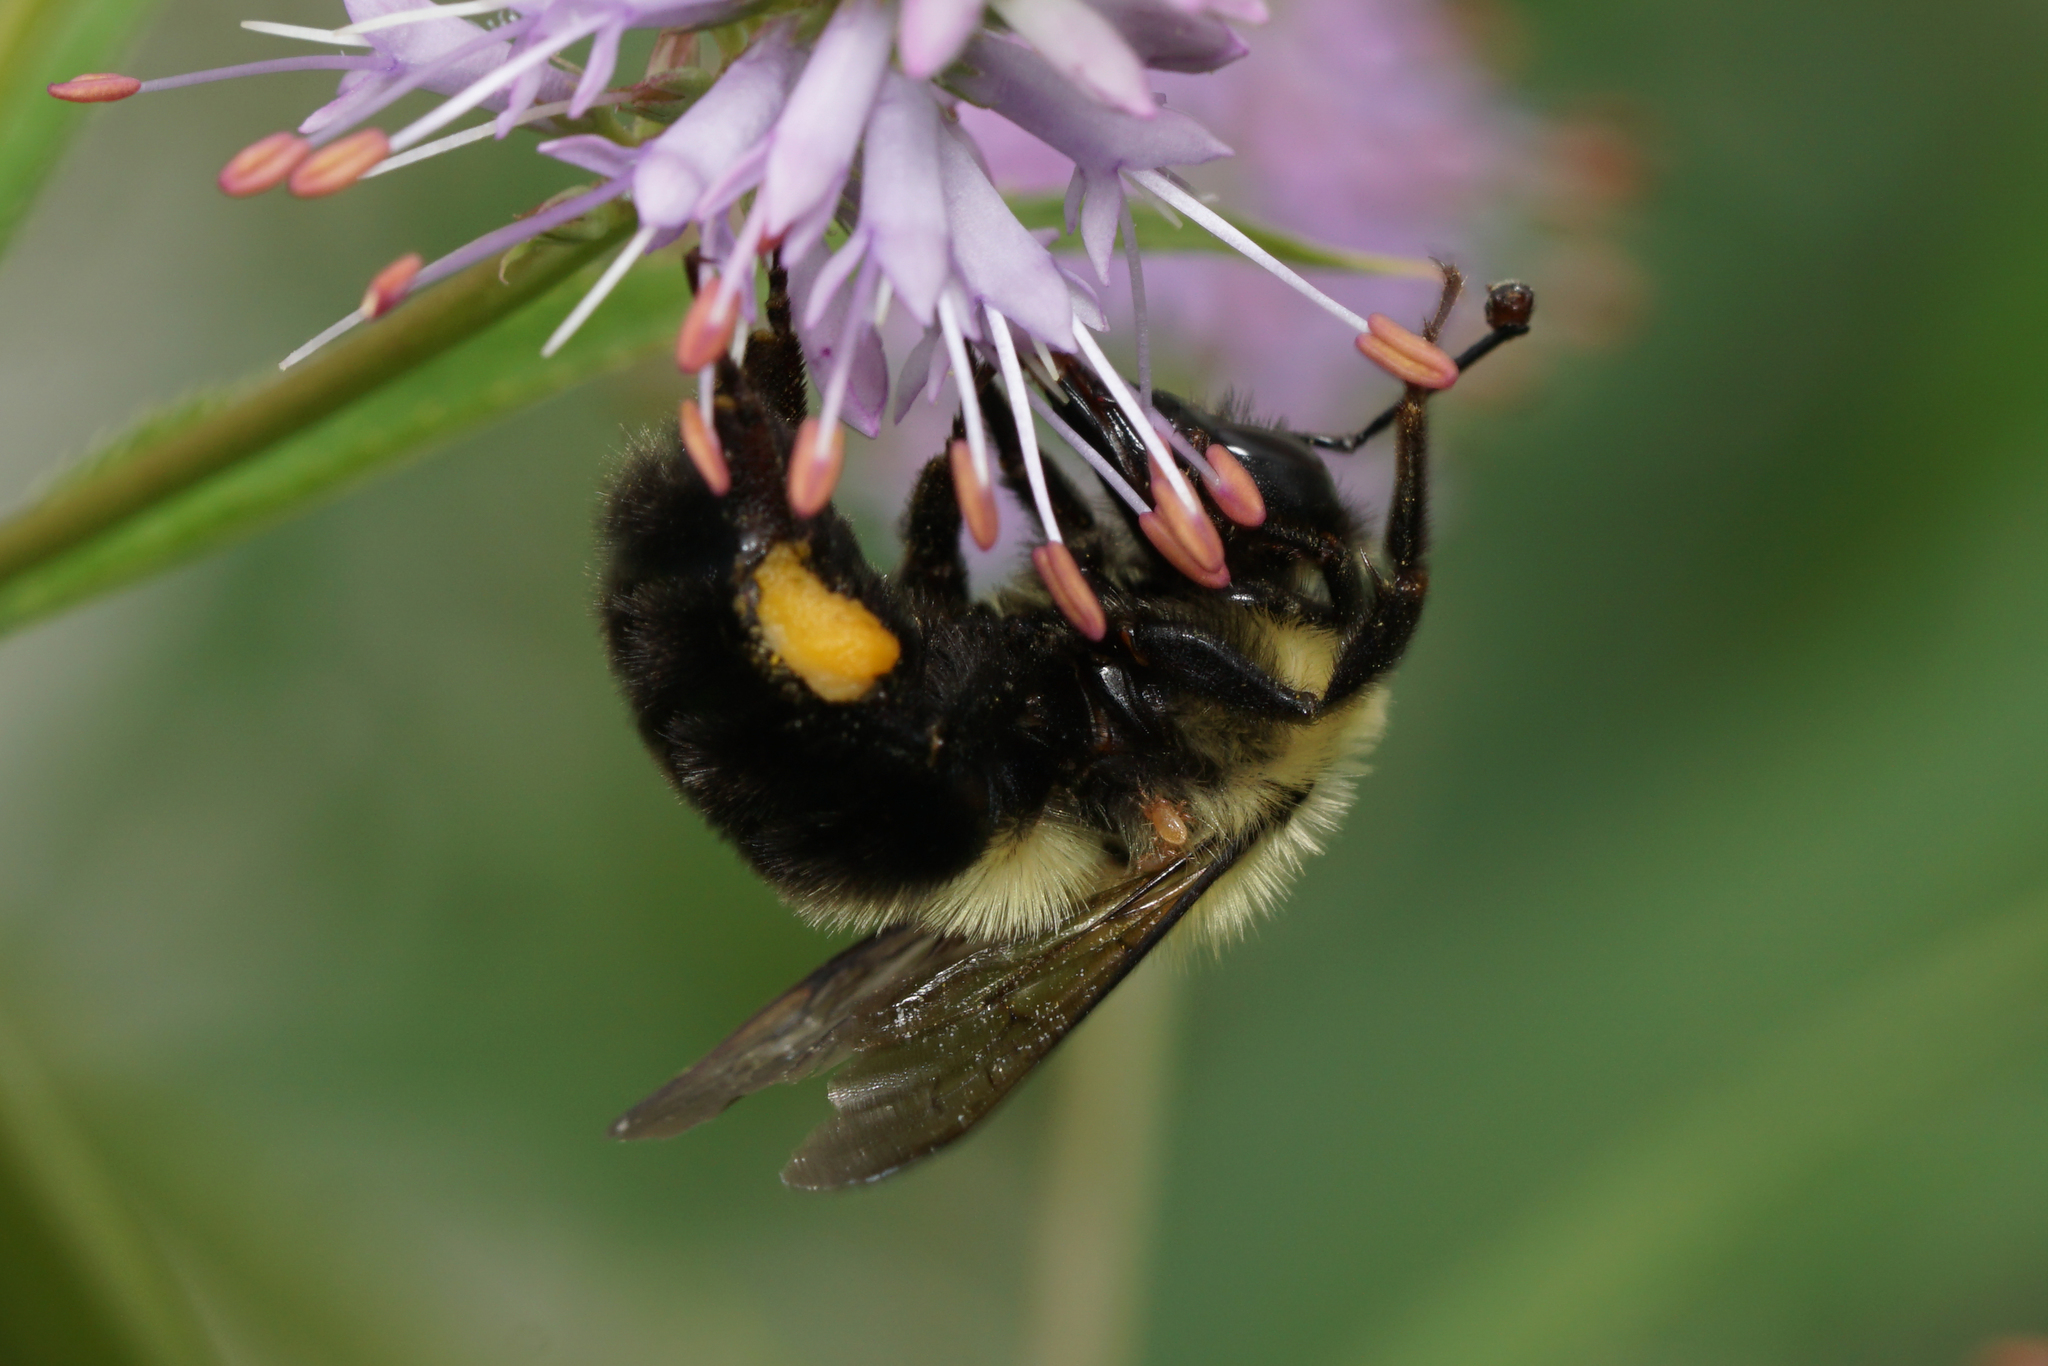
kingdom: Animalia
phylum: Arthropoda
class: Insecta
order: Hymenoptera
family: Apidae
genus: Bombus
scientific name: Bombus bimaculatus
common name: Two-spotted bumble bee
